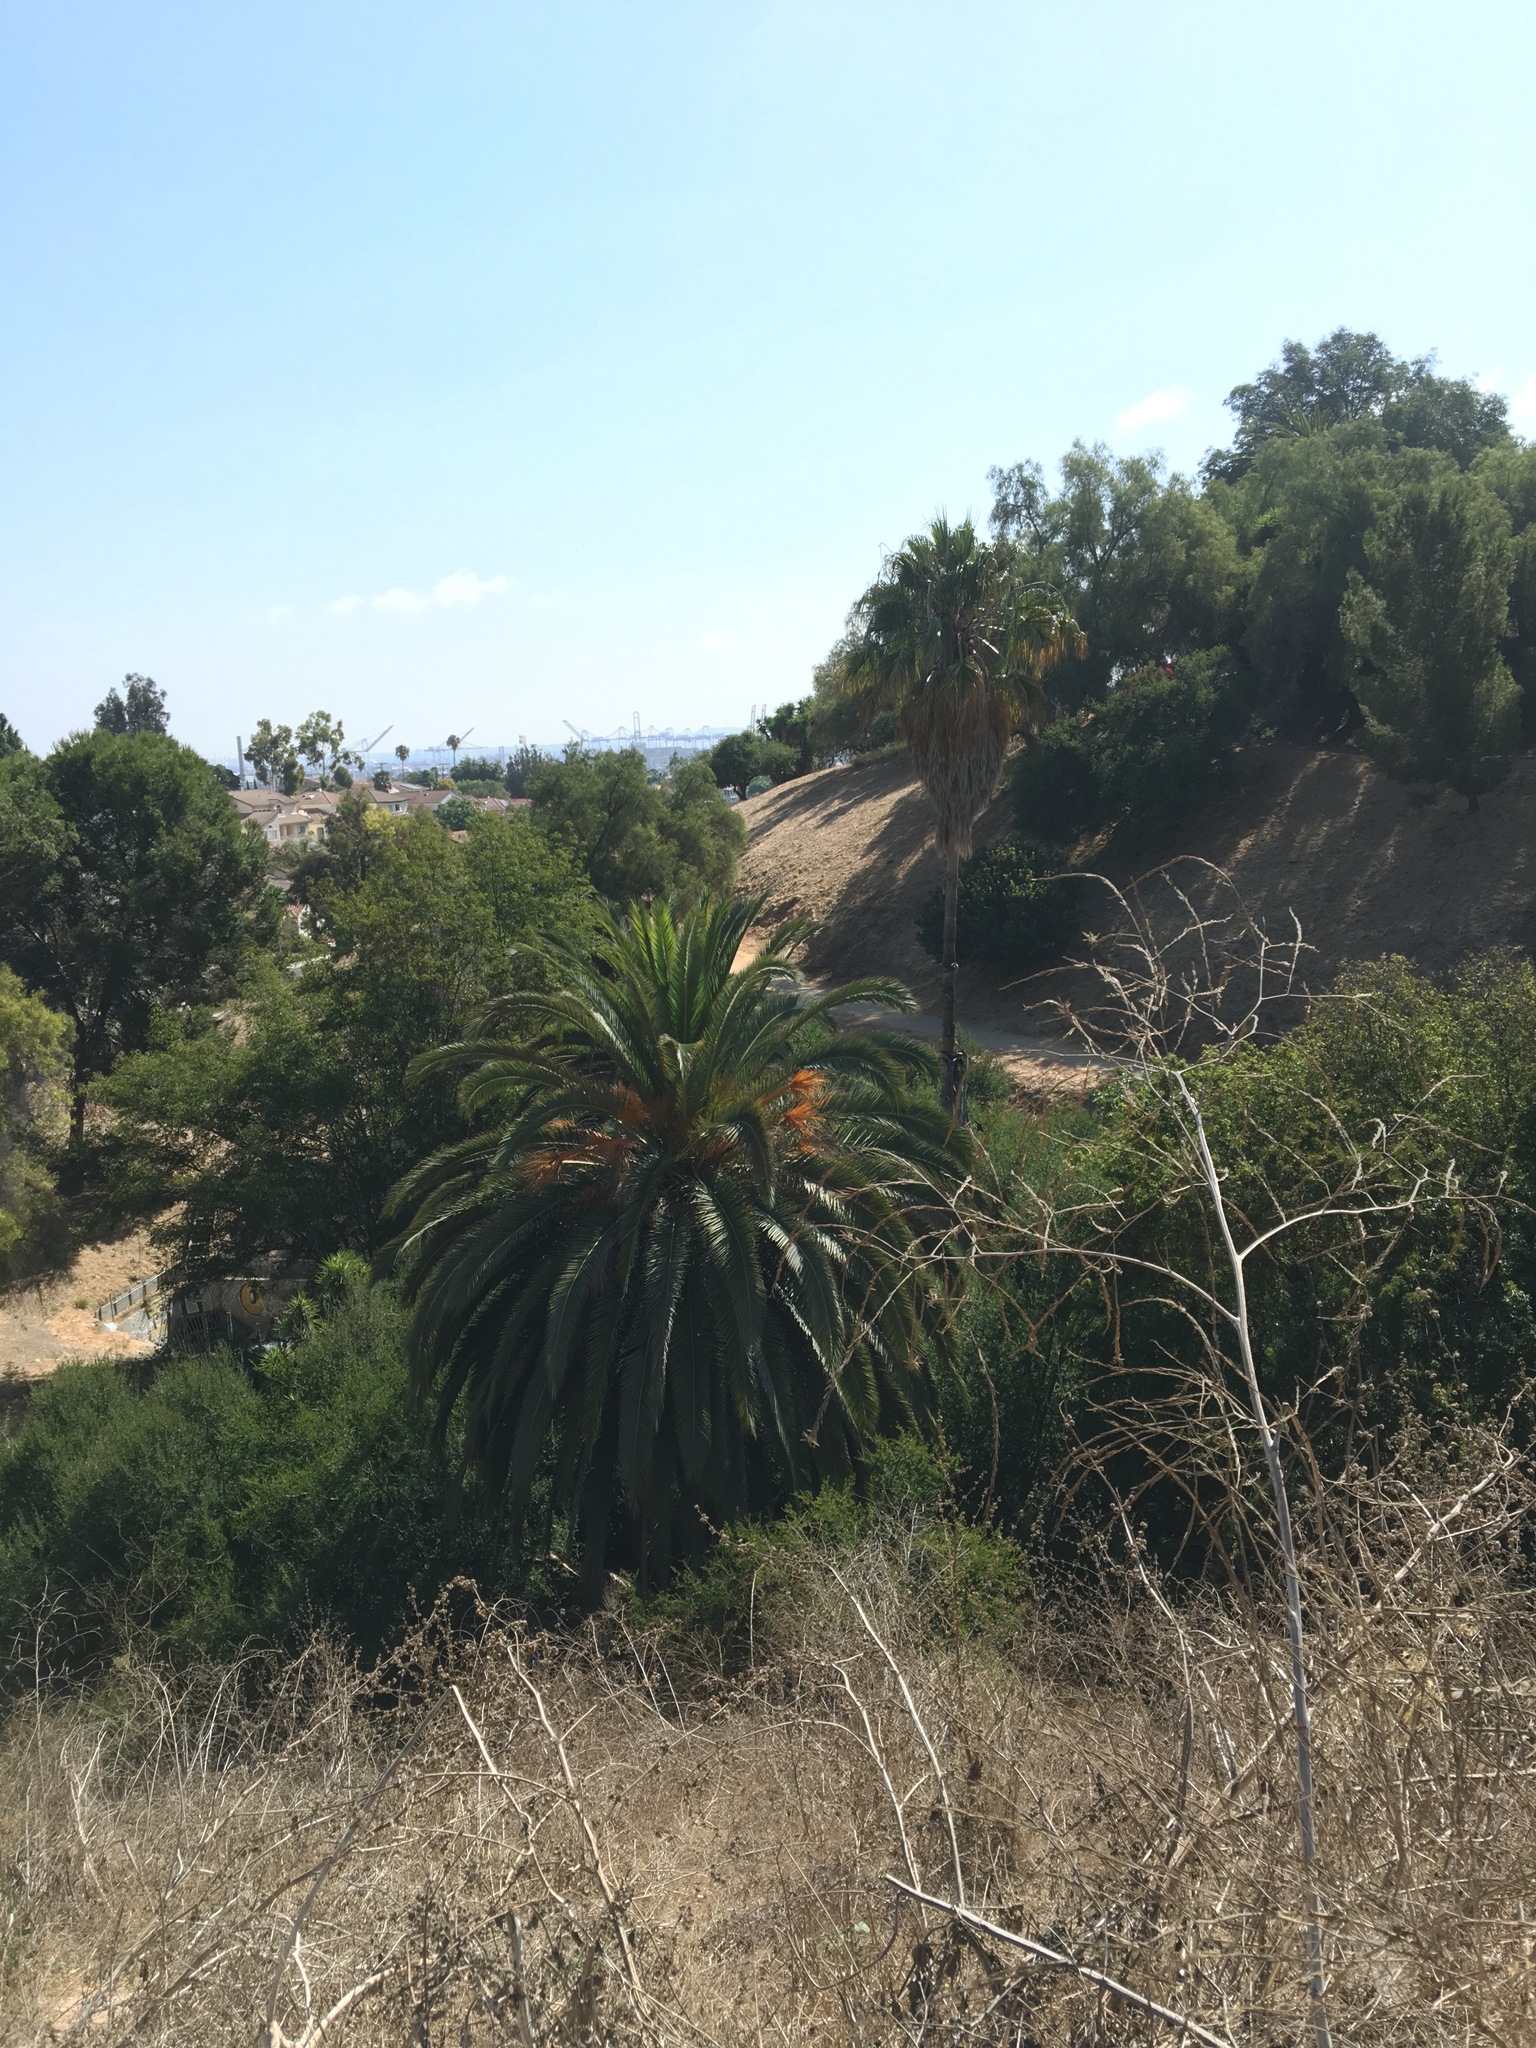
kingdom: Plantae
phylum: Tracheophyta
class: Liliopsida
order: Arecales
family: Arecaceae
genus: Phoenix
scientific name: Phoenix canariensis
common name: Canary island date palm
